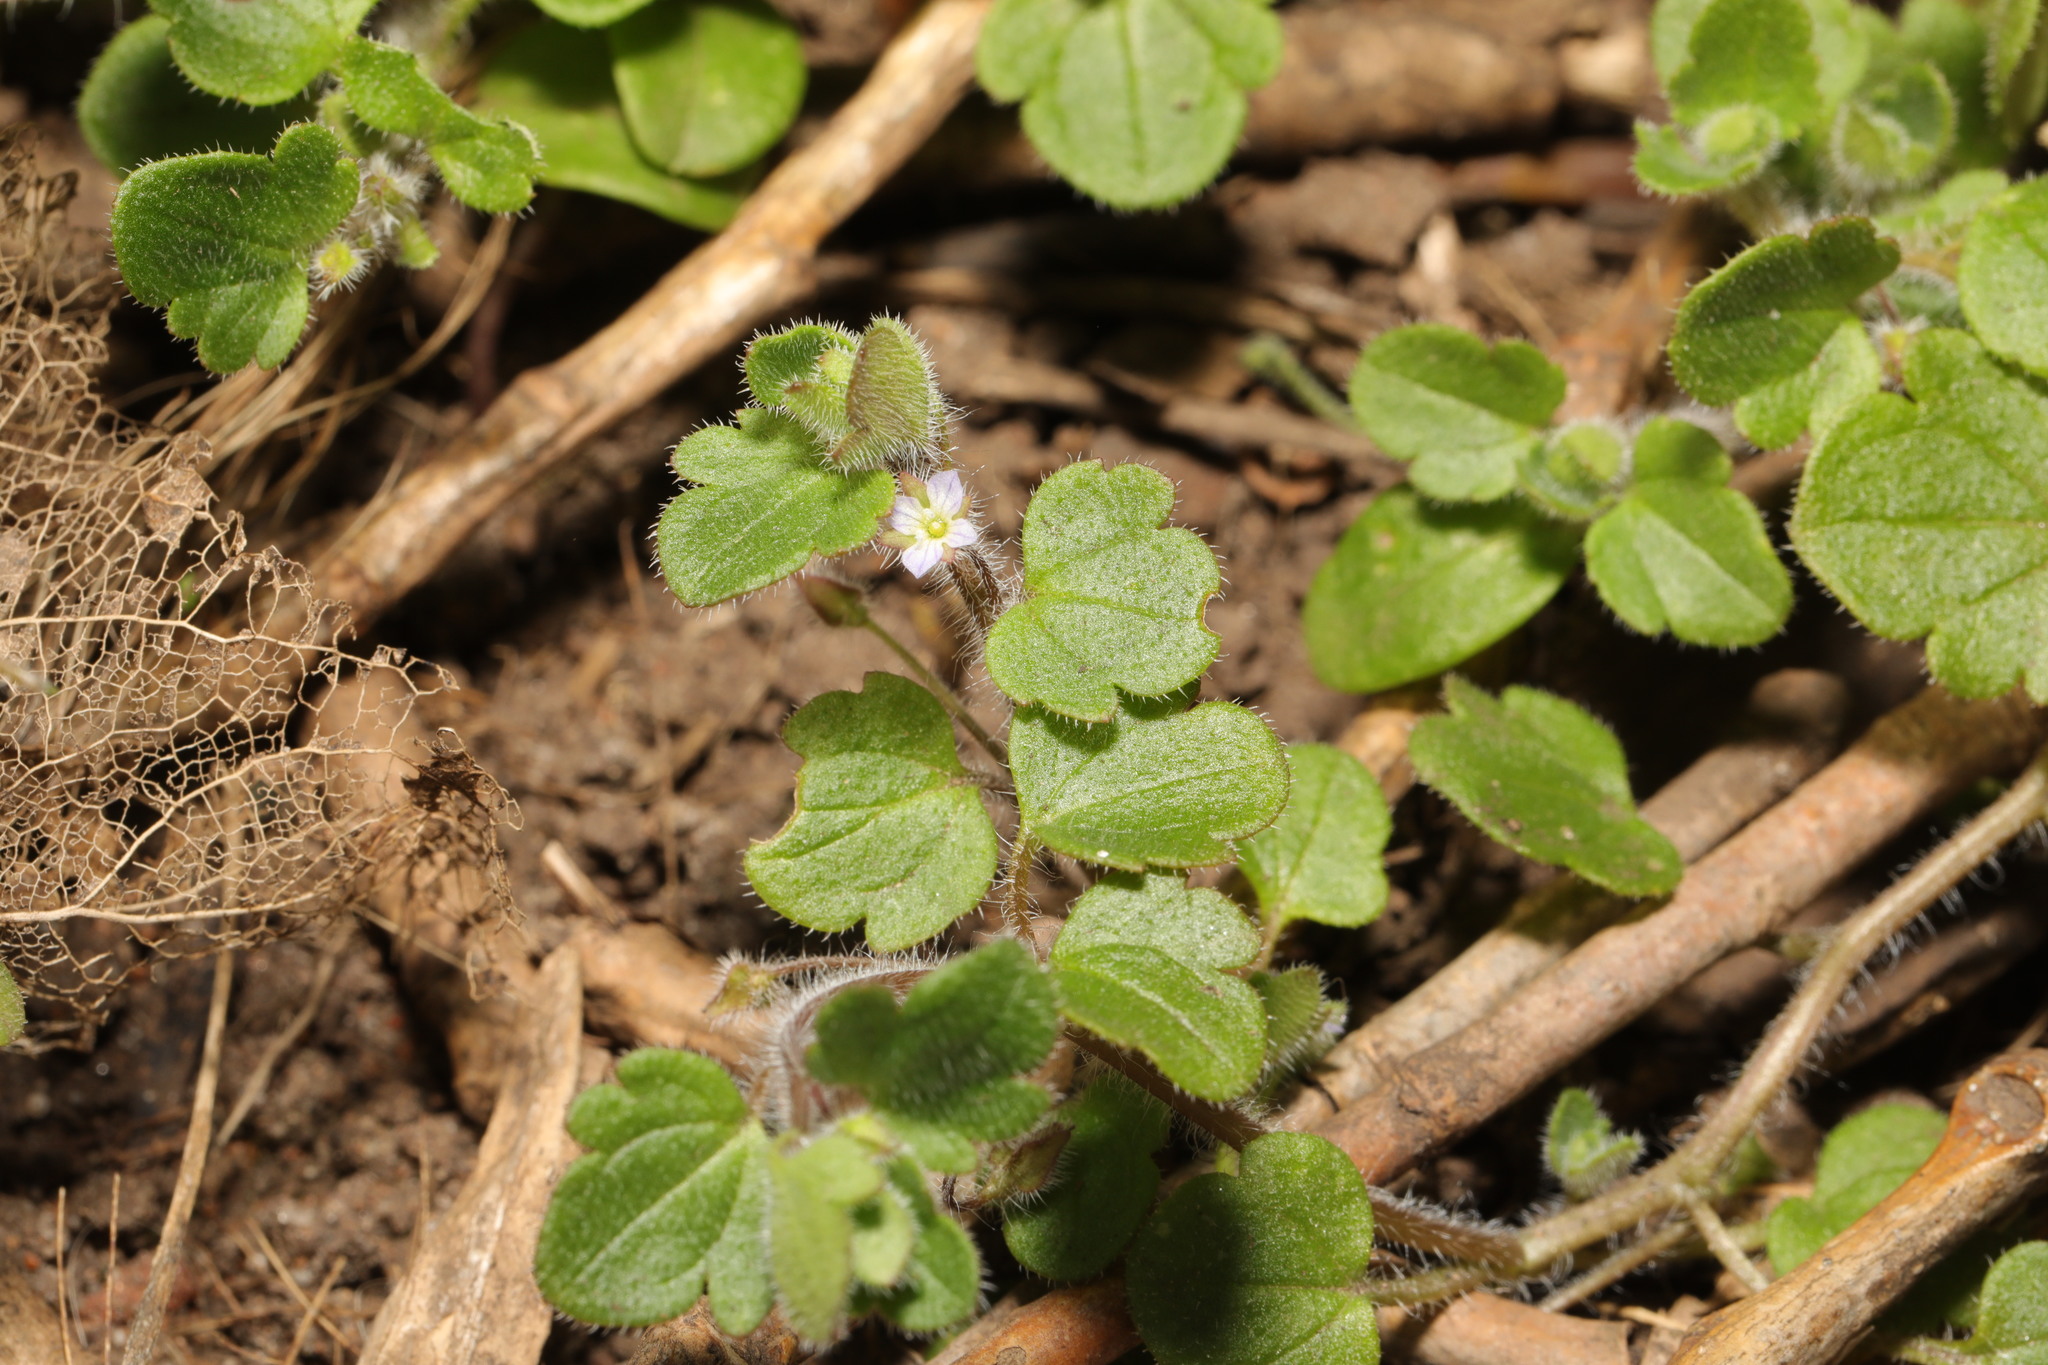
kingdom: Plantae
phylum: Tracheophyta
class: Magnoliopsida
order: Lamiales
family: Plantaginaceae
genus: Veronica
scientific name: Veronica hederifolia
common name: Ivy-leaved speedwell
